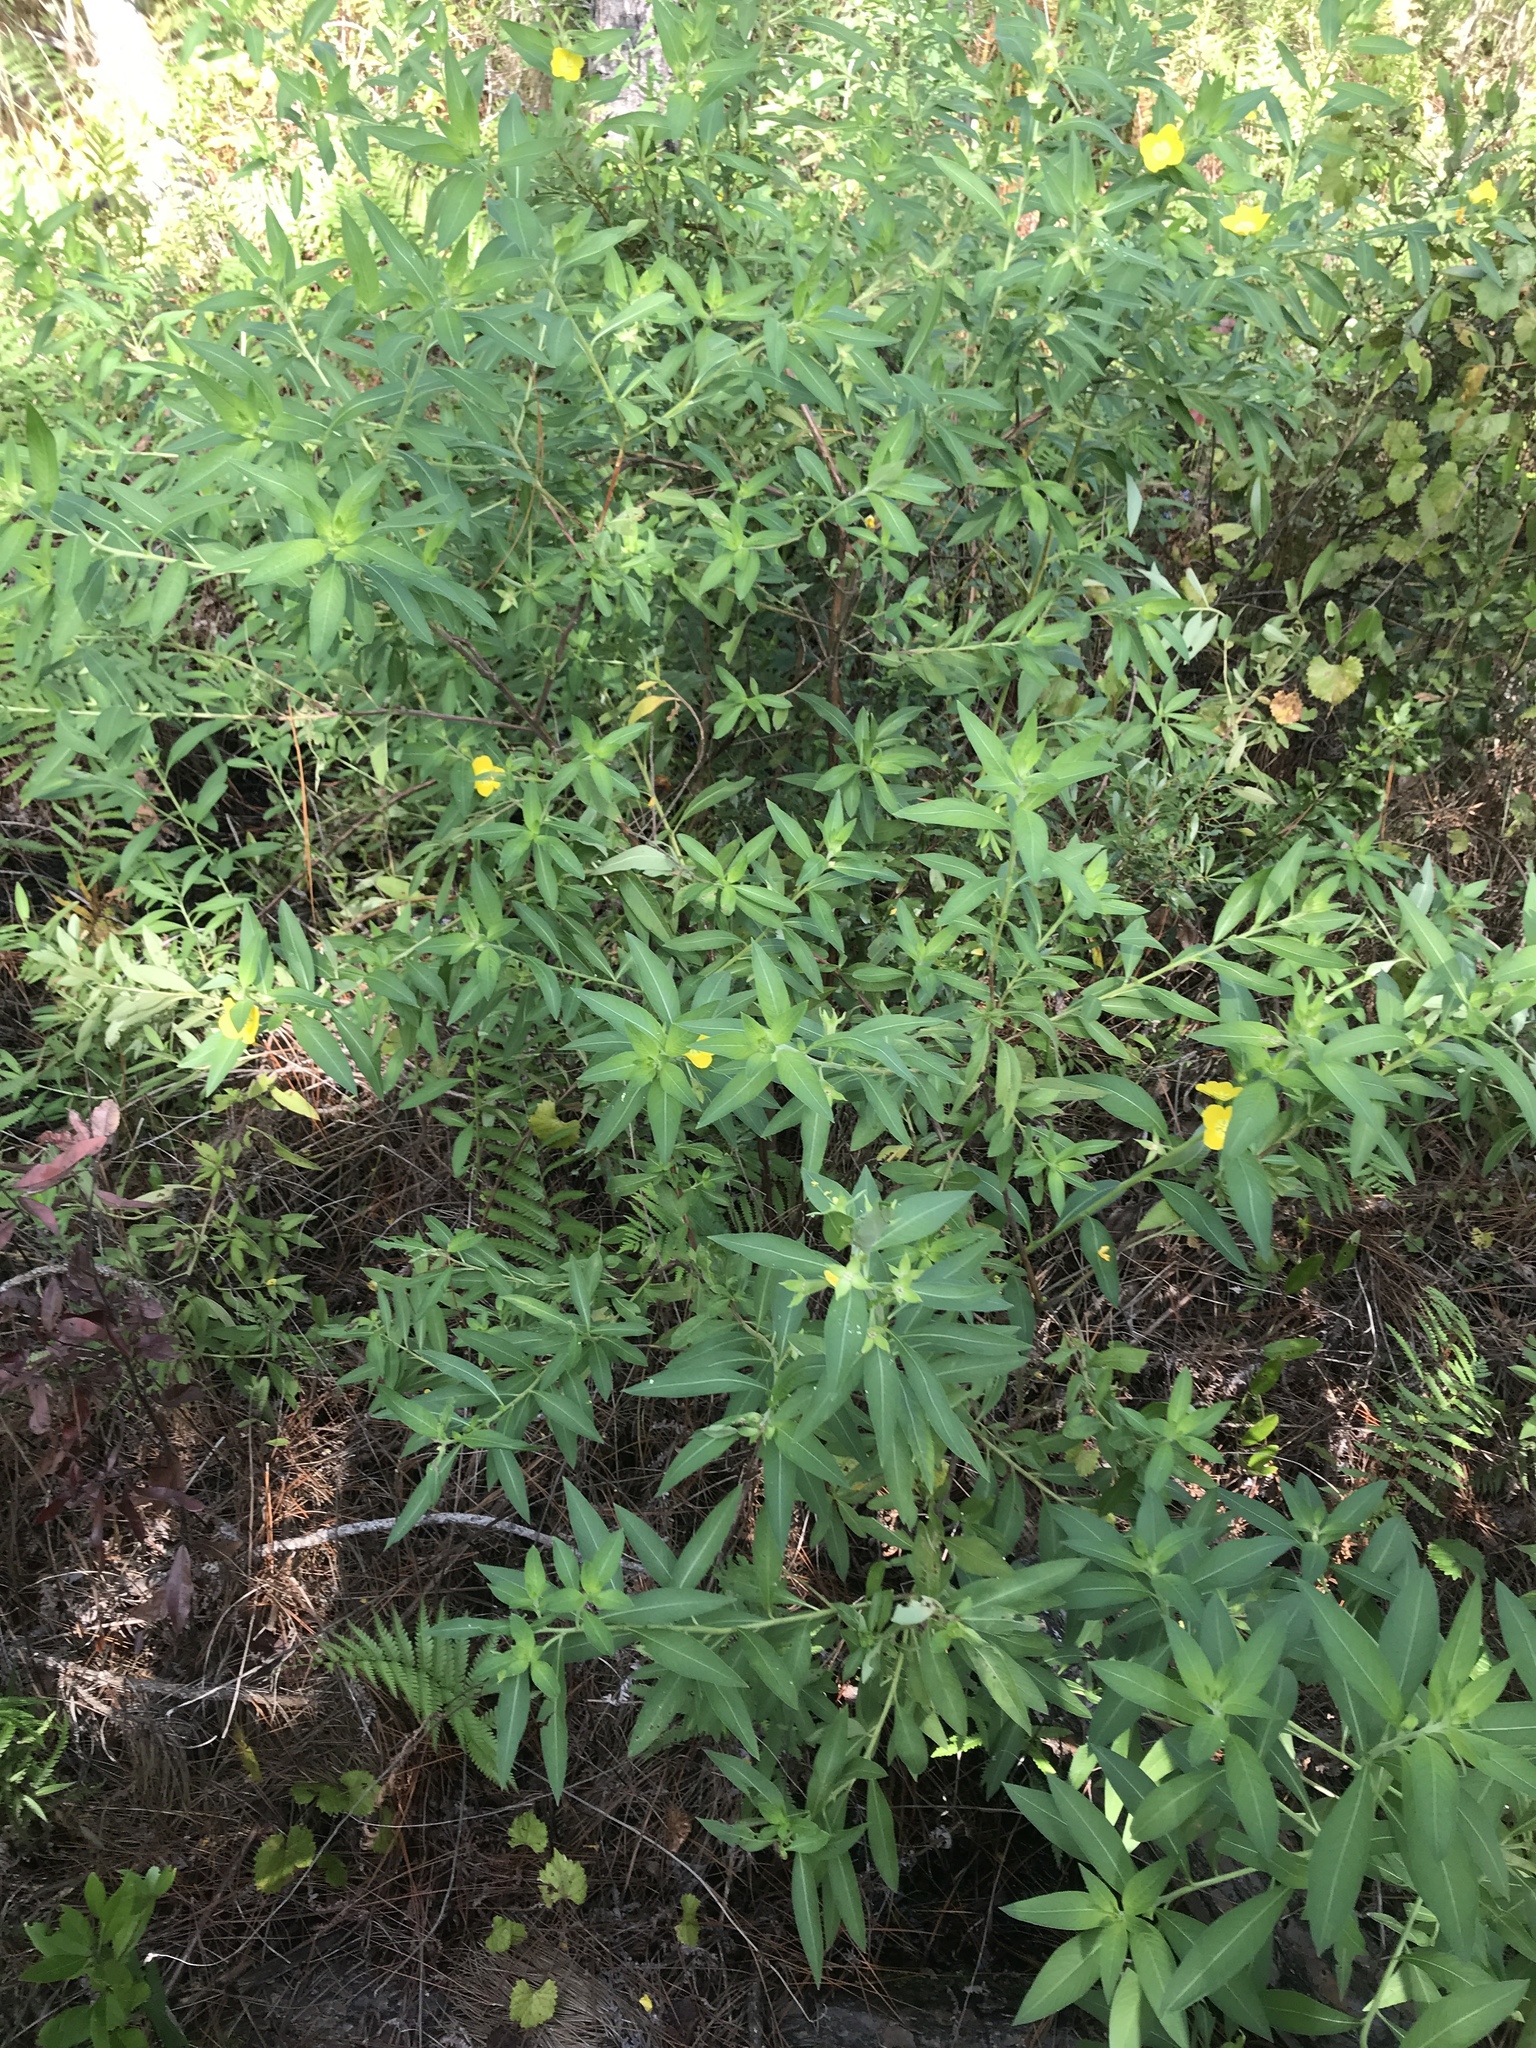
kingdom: Plantae
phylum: Tracheophyta
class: Magnoliopsida
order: Myrtales
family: Onagraceae
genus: Ludwigia
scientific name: Ludwigia peruviana
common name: Peruvian primrose-willow
